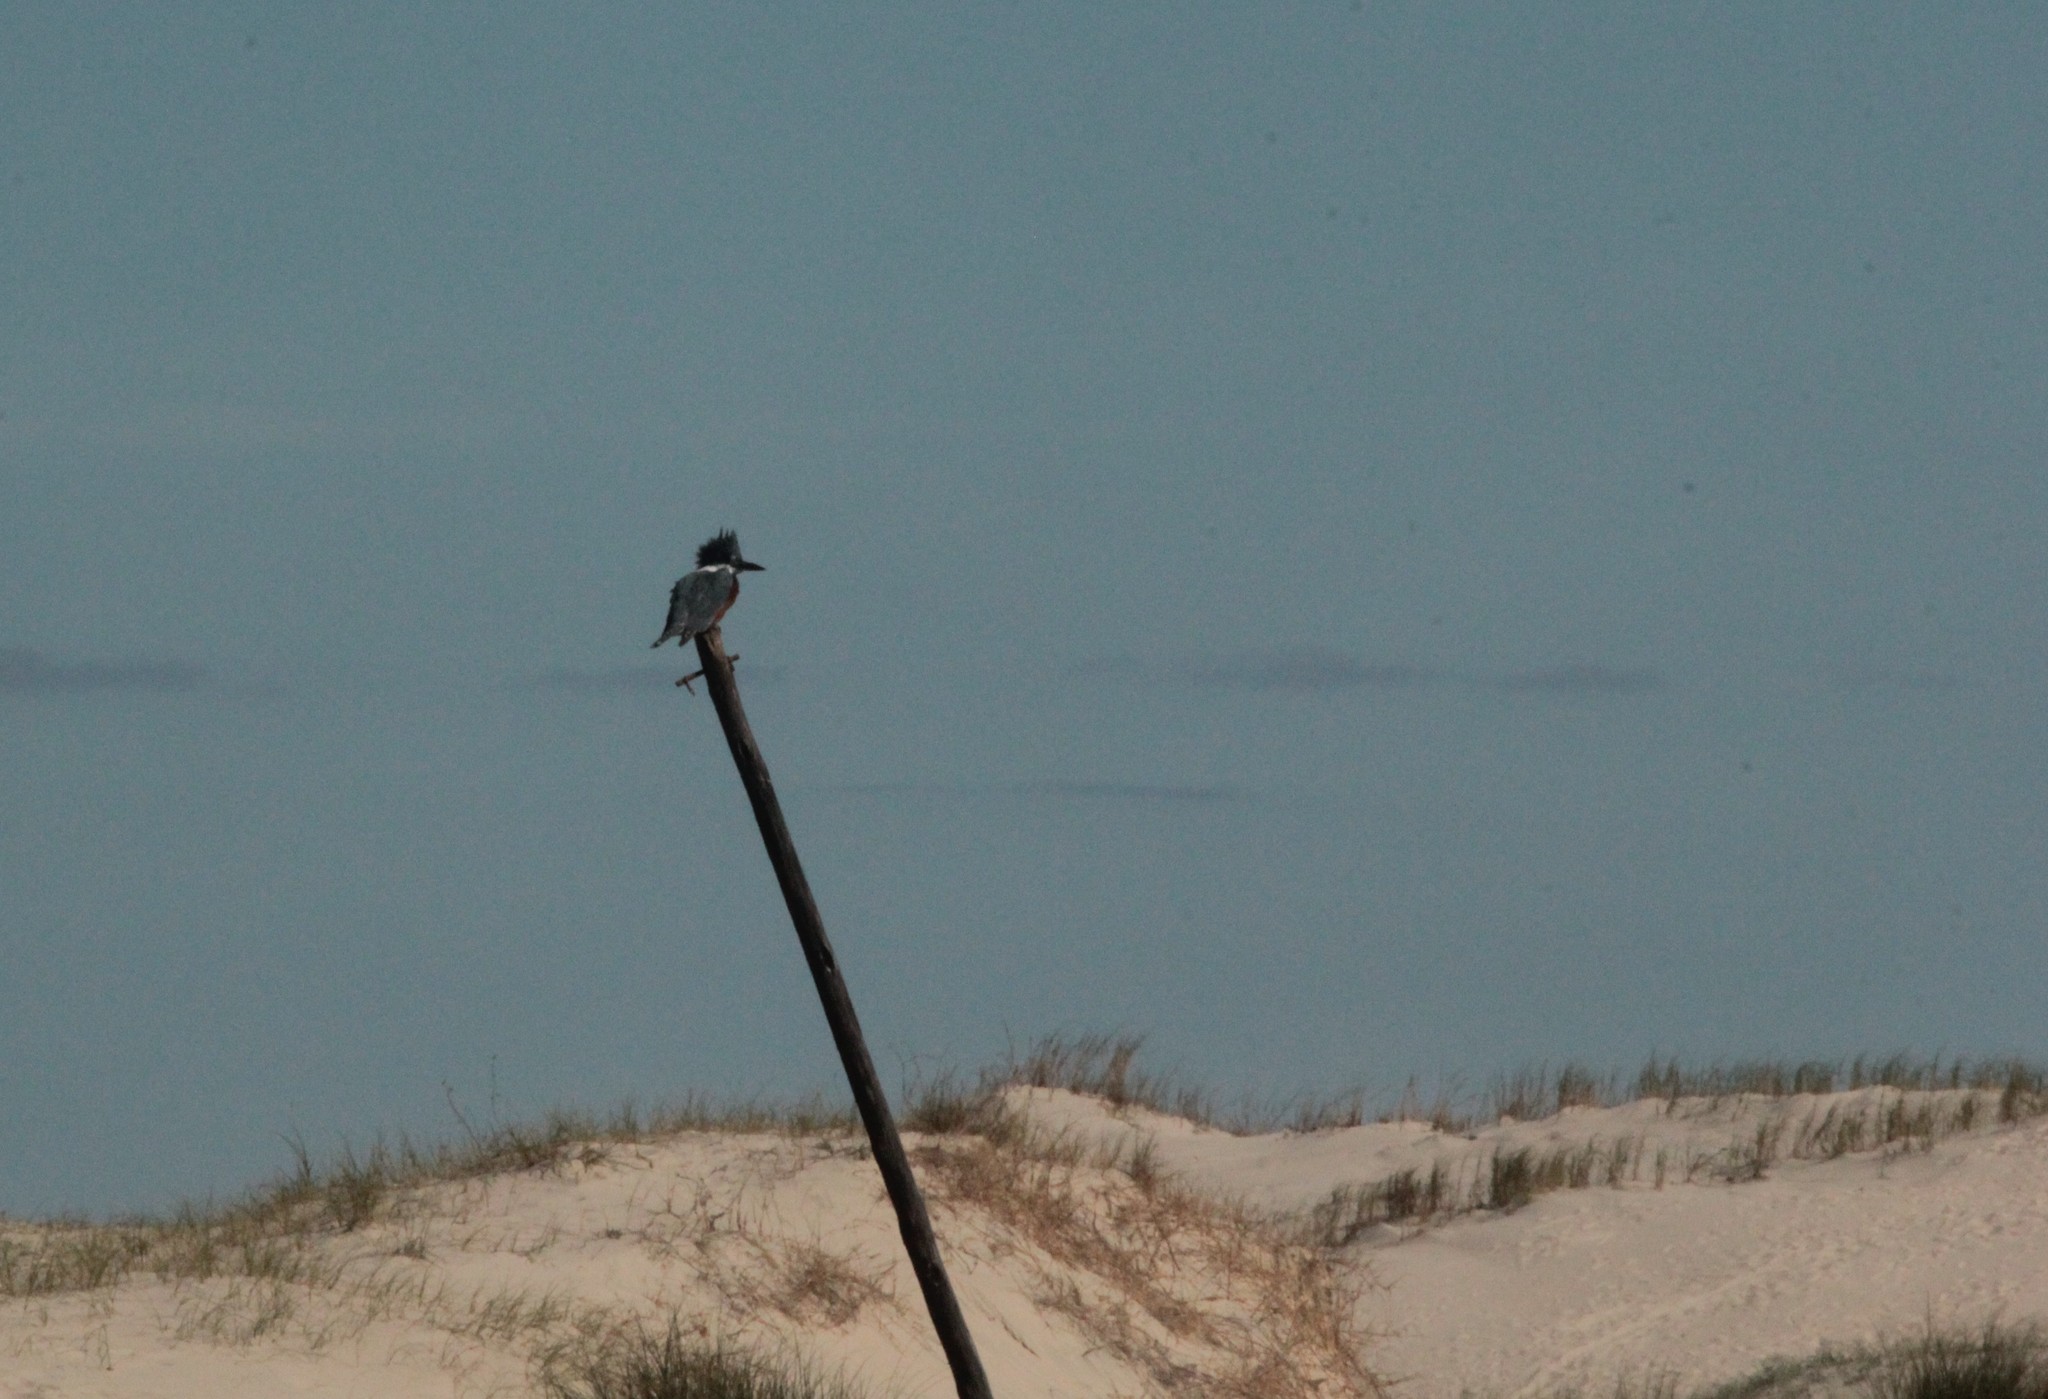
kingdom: Animalia
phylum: Chordata
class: Aves
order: Coraciiformes
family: Alcedinidae
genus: Chloroceryle
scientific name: Chloroceryle americana
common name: Green kingfisher
